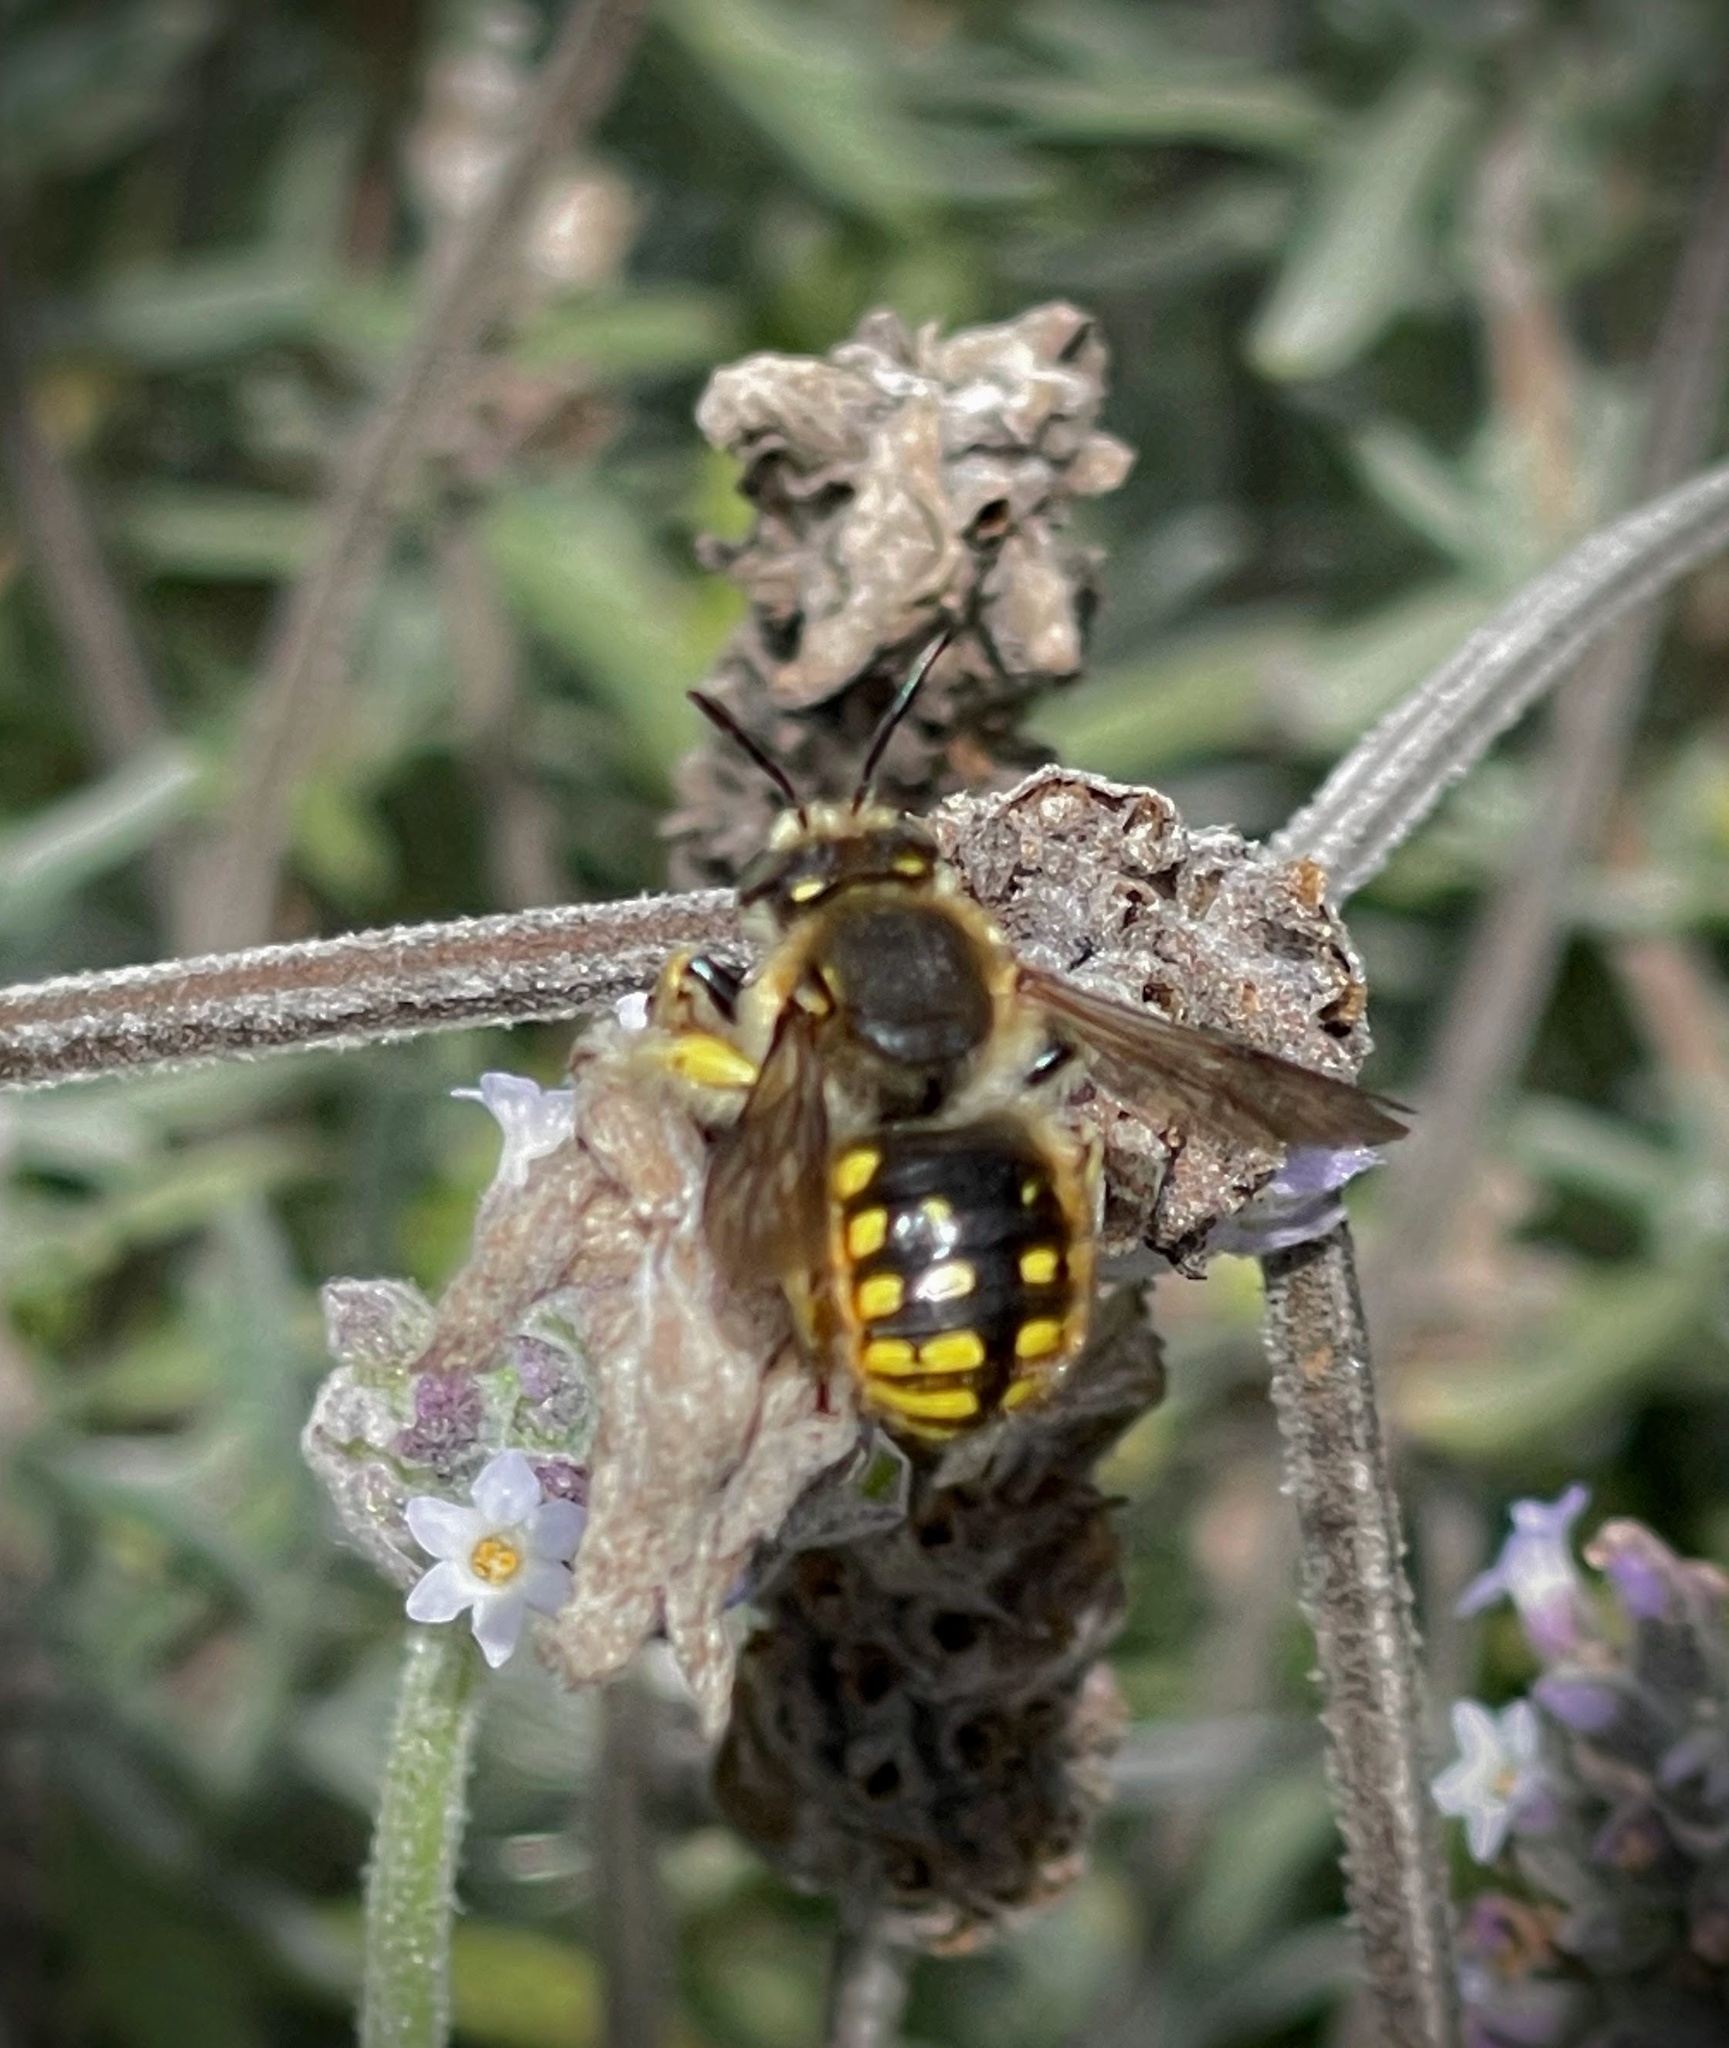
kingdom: Animalia
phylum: Arthropoda
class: Insecta
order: Hymenoptera
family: Megachilidae
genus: Anthidium
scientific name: Anthidium manicatum
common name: Wool carder bee
